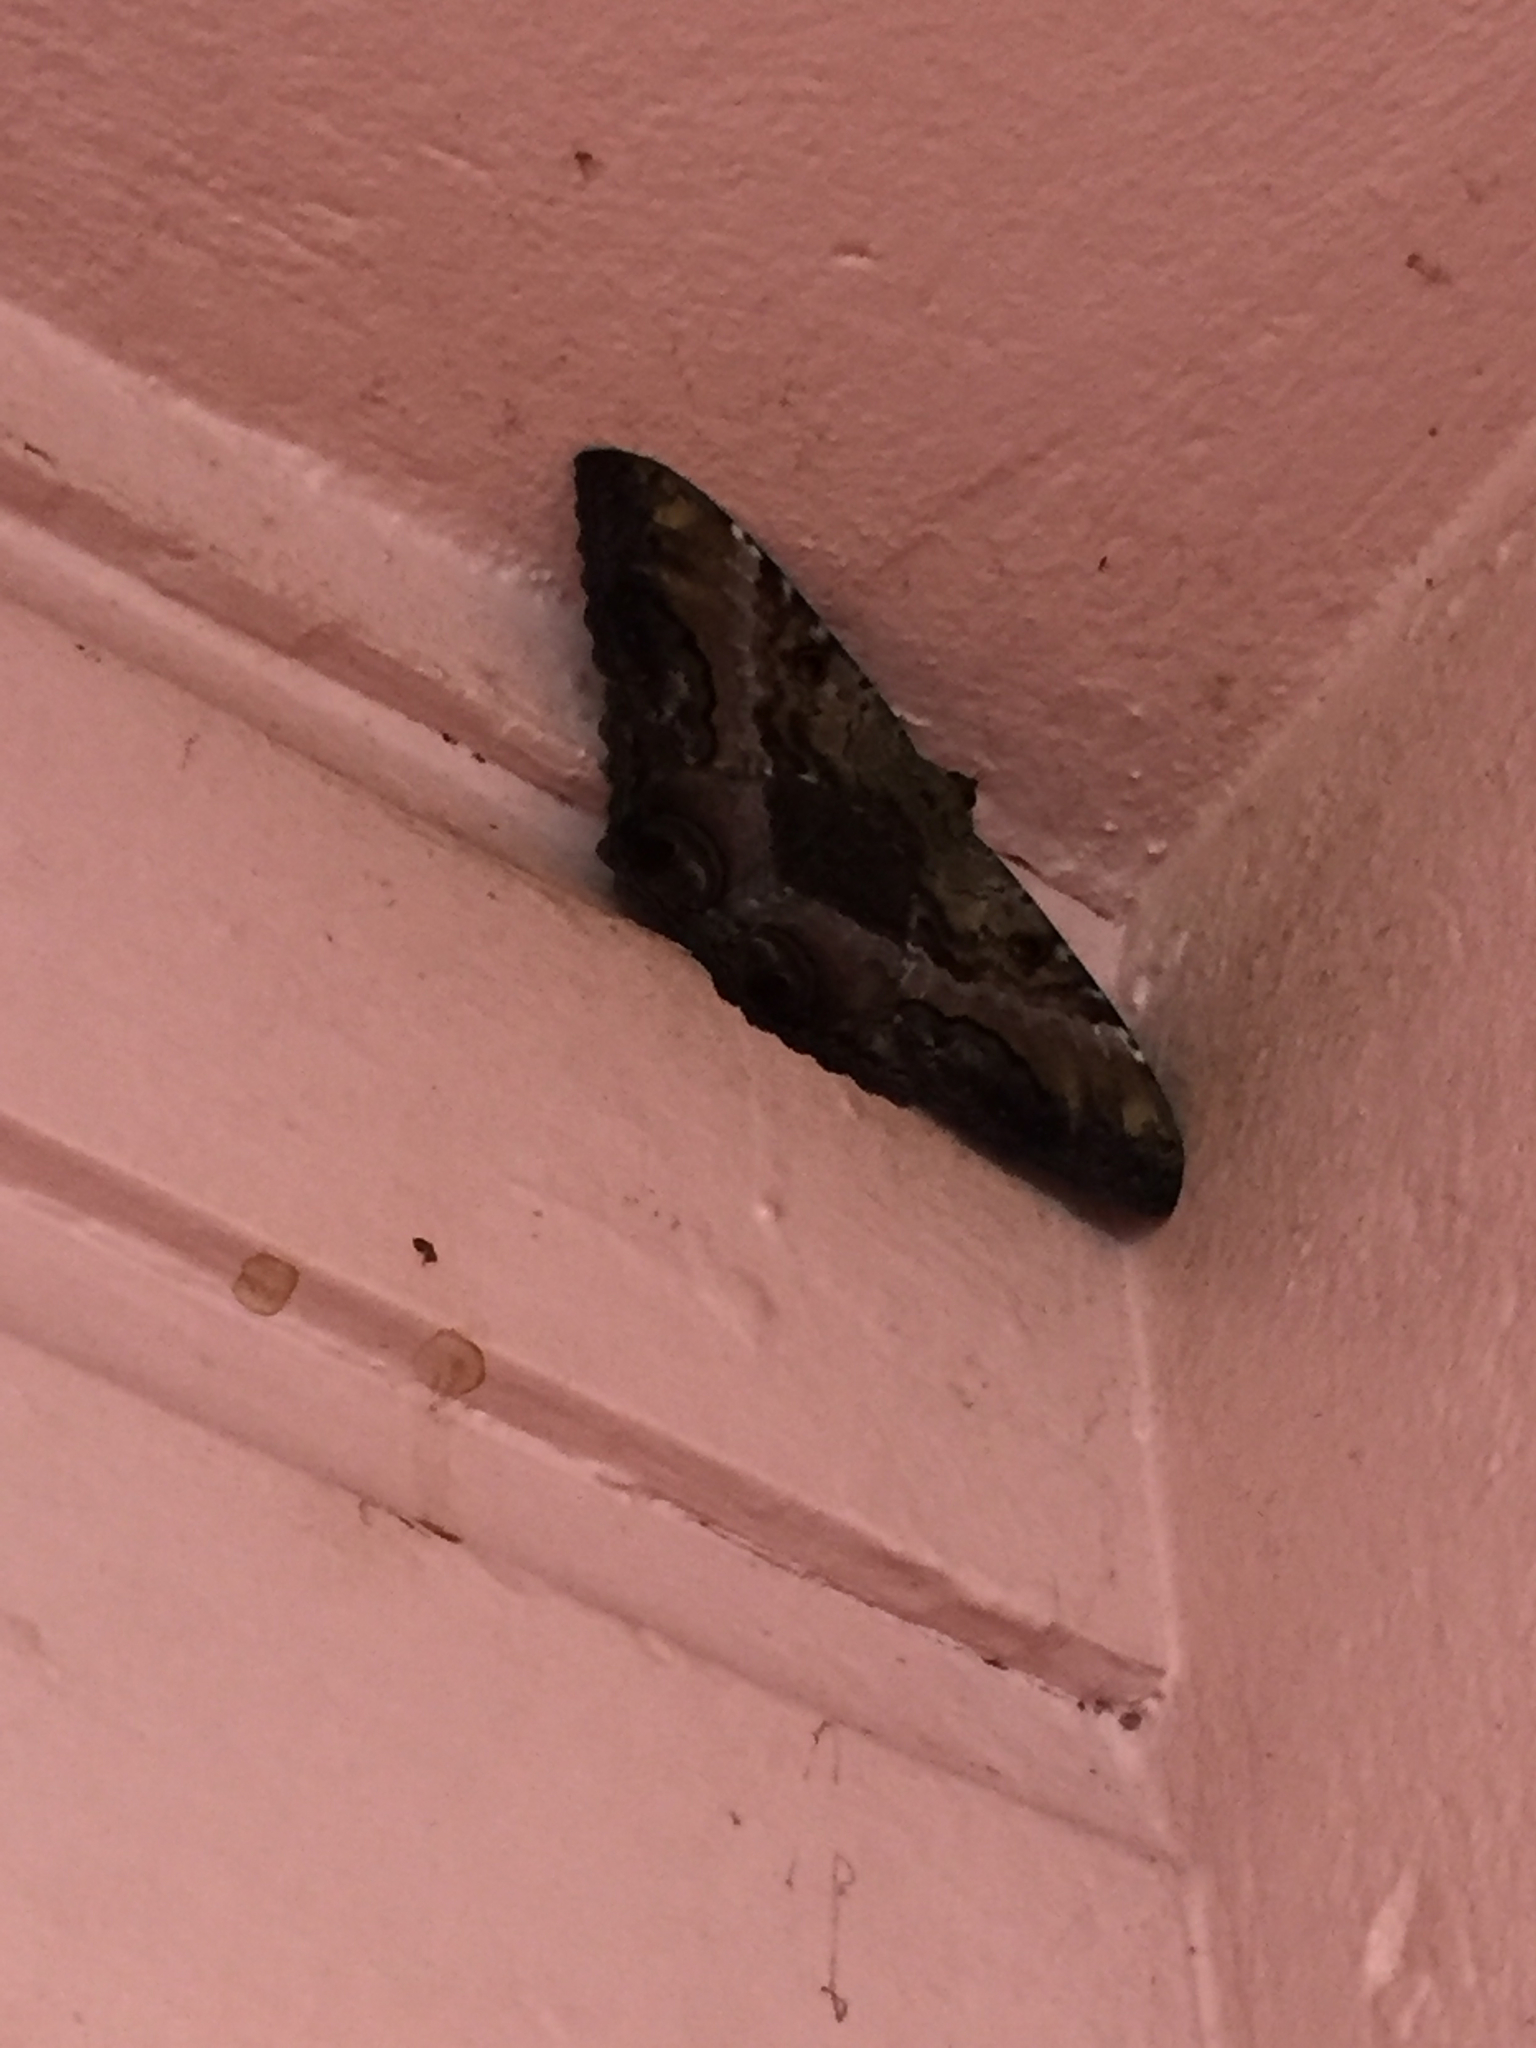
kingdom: Animalia
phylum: Arthropoda
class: Insecta
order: Lepidoptera
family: Erebidae
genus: Ascalapha
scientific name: Ascalapha odorata
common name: Black witch
